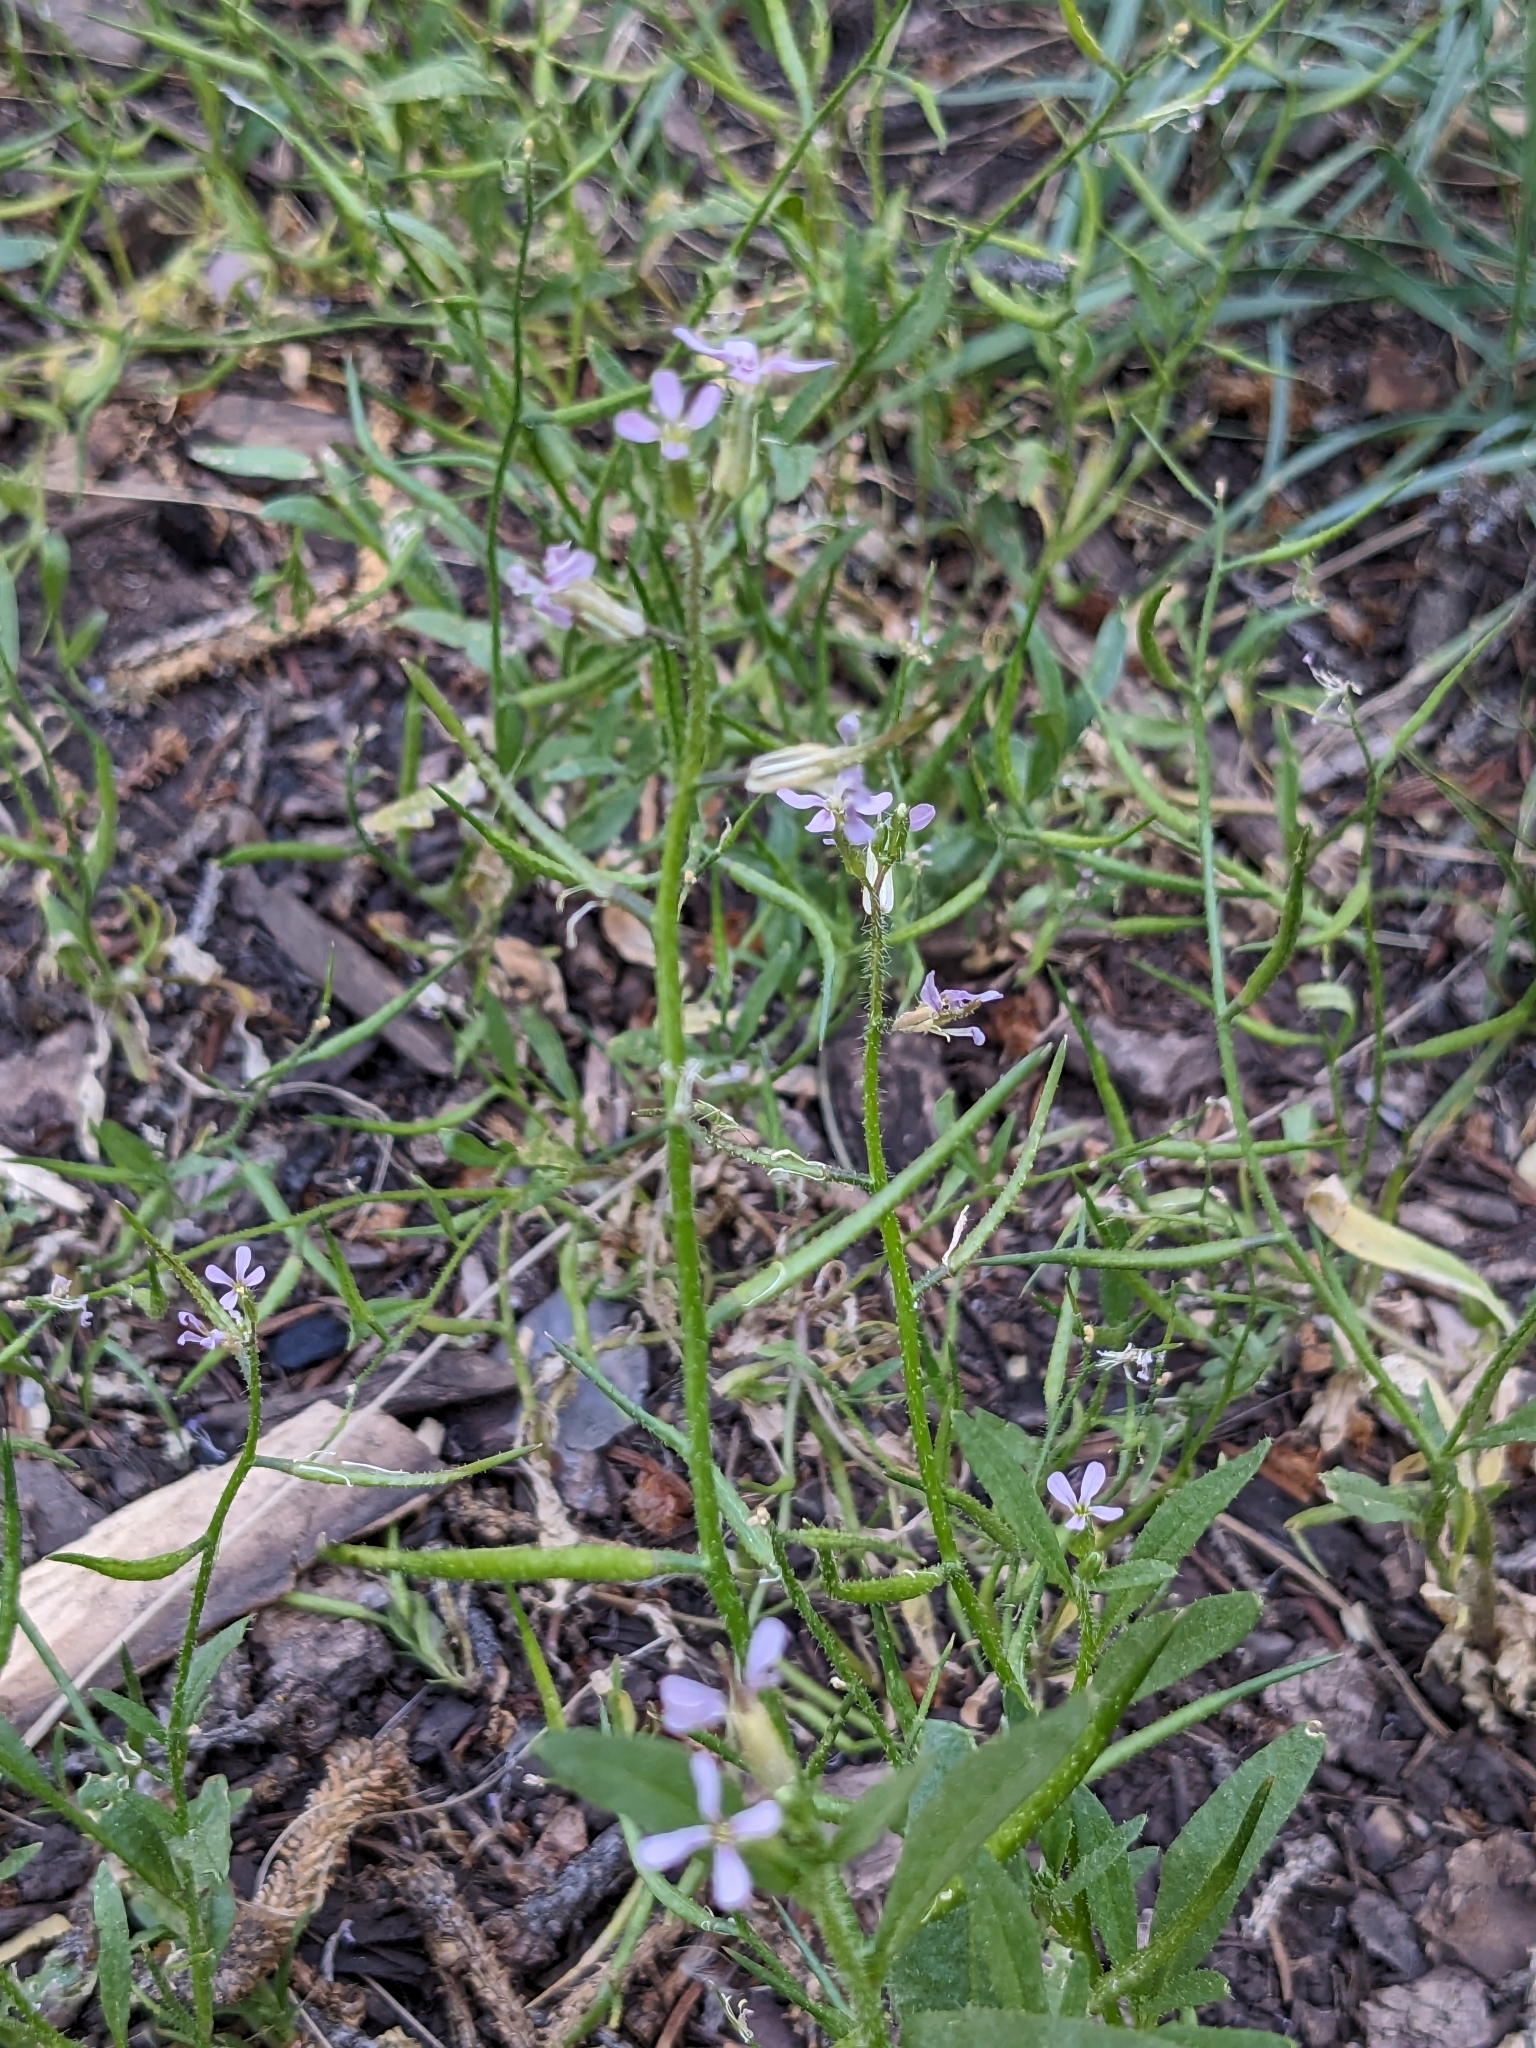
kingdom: Plantae
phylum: Tracheophyta
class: Magnoliopsida
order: Brassicales
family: Brassicaceae
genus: Chorispora
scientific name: Chorispora tenella
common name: Crossflower
